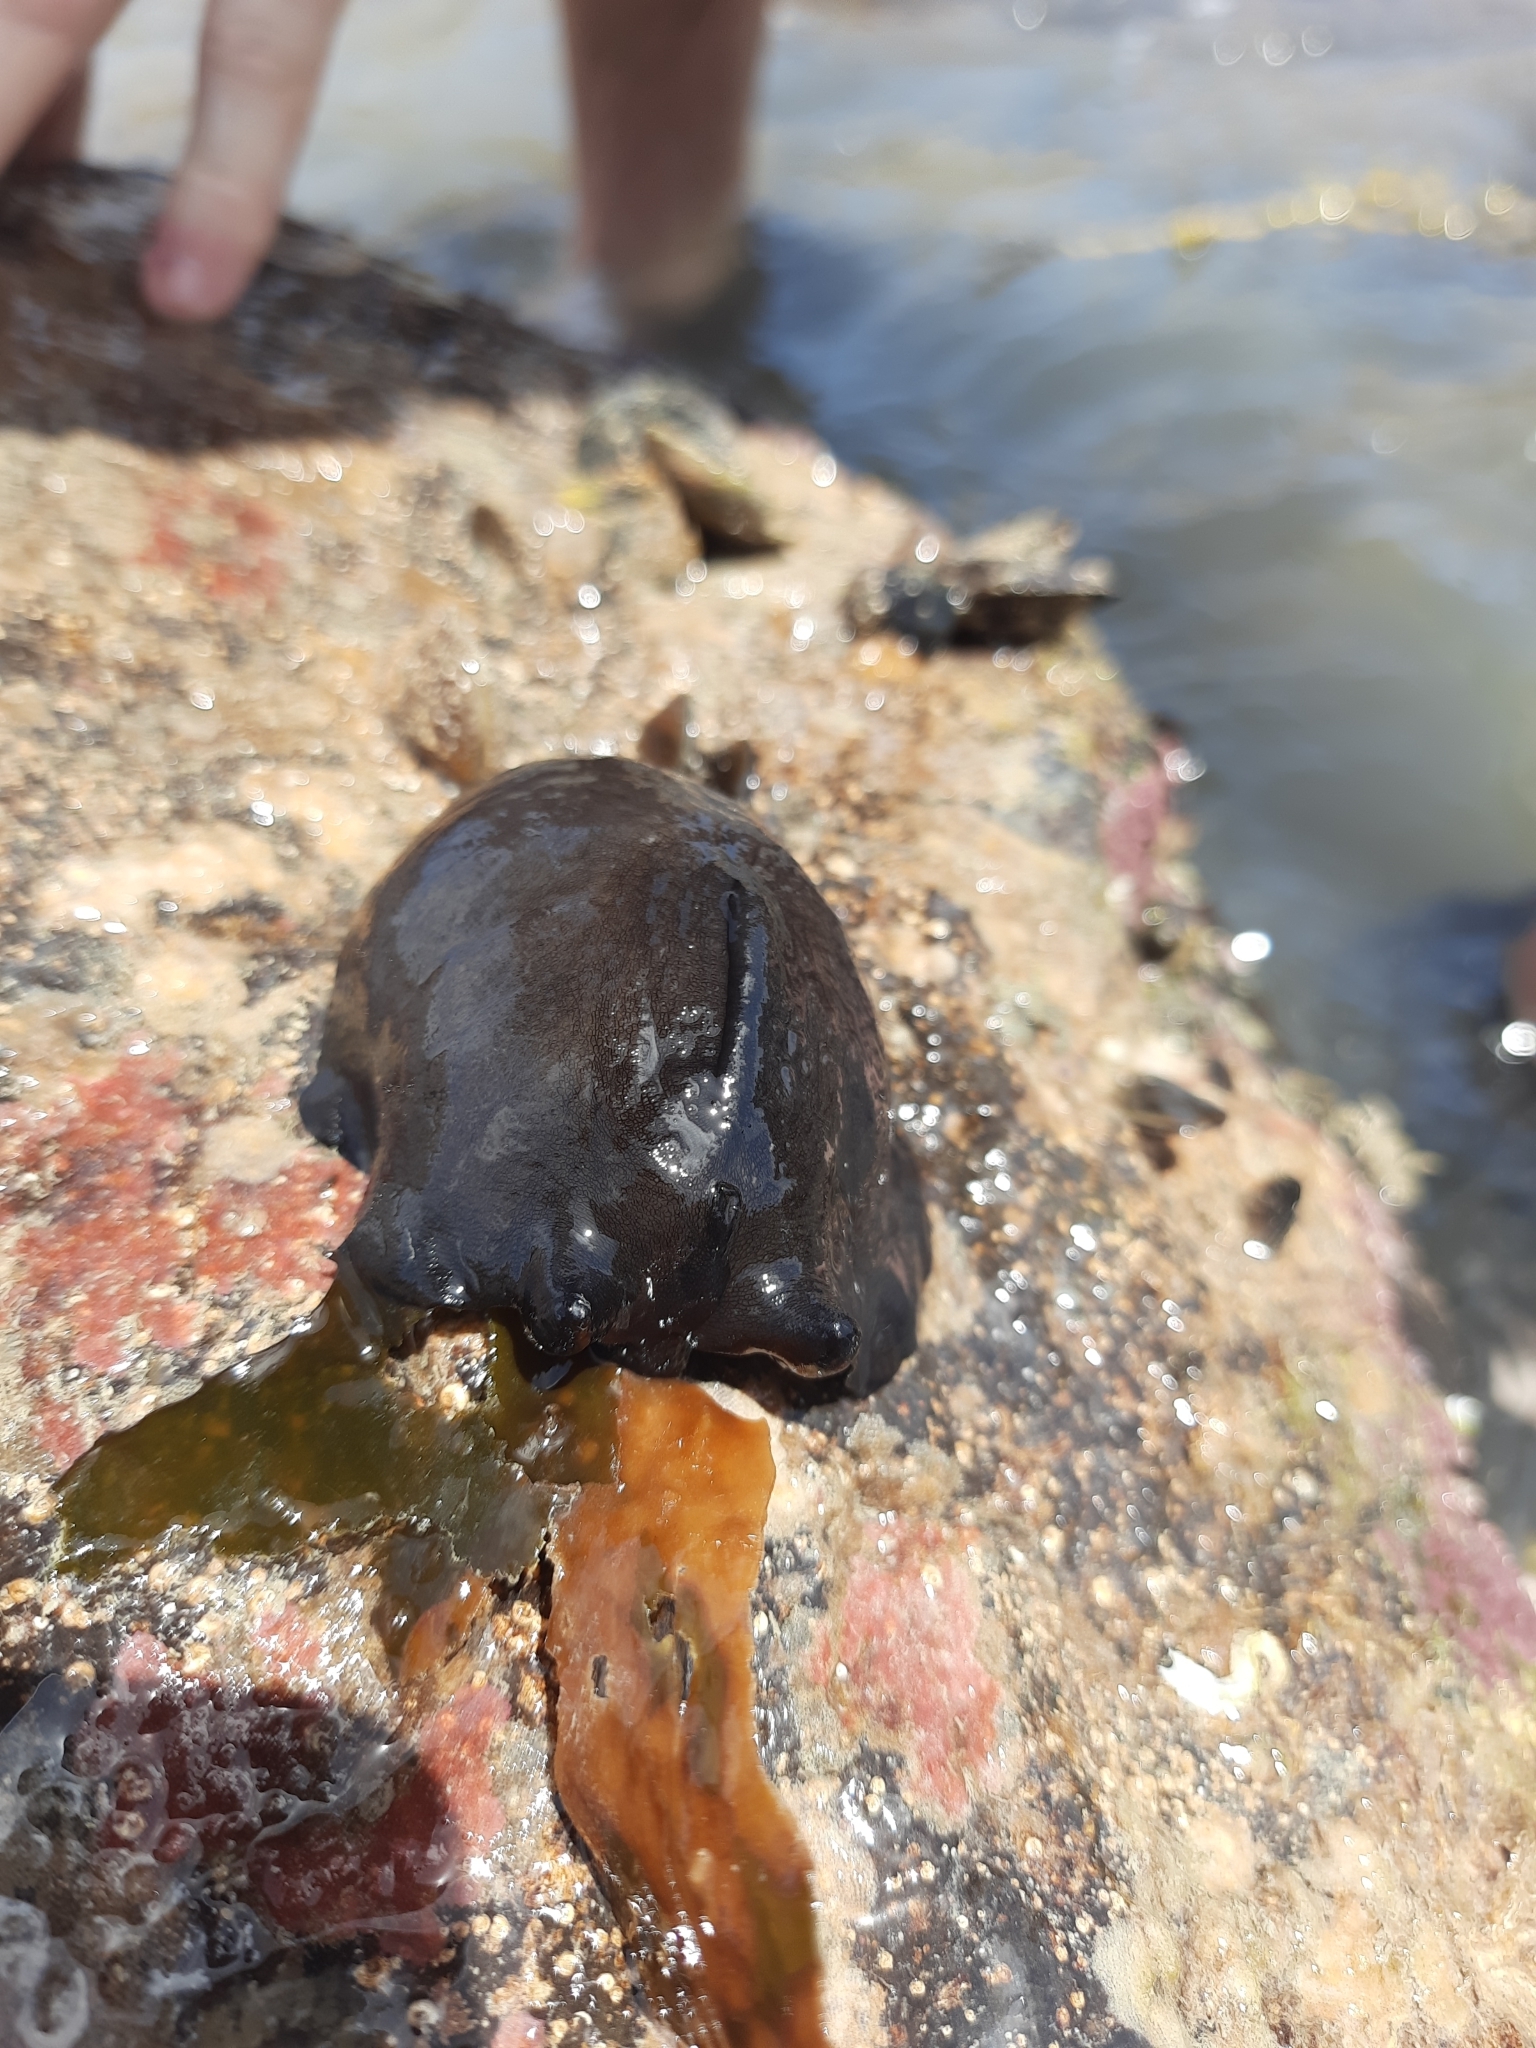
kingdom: Animalia
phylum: Mollusca
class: Gastropoda
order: Lepetellida
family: Fissurellidae
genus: Scutus
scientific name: Scutus breviculus
